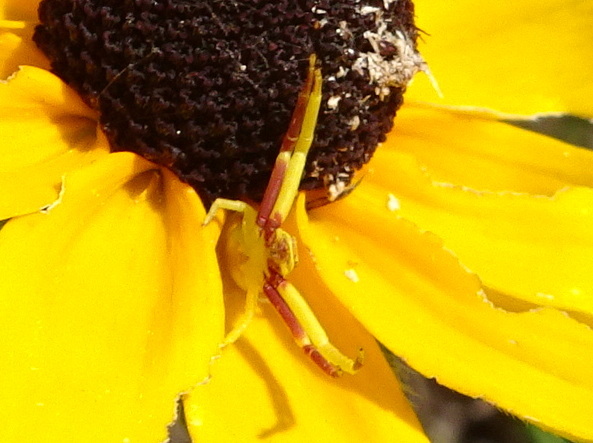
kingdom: Animalia
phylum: Arthropoda
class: Arachnida
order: Araneae
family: Thomisidae
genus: Misumenoides
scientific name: Misumenoides formosipes
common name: White-banded crab spider
